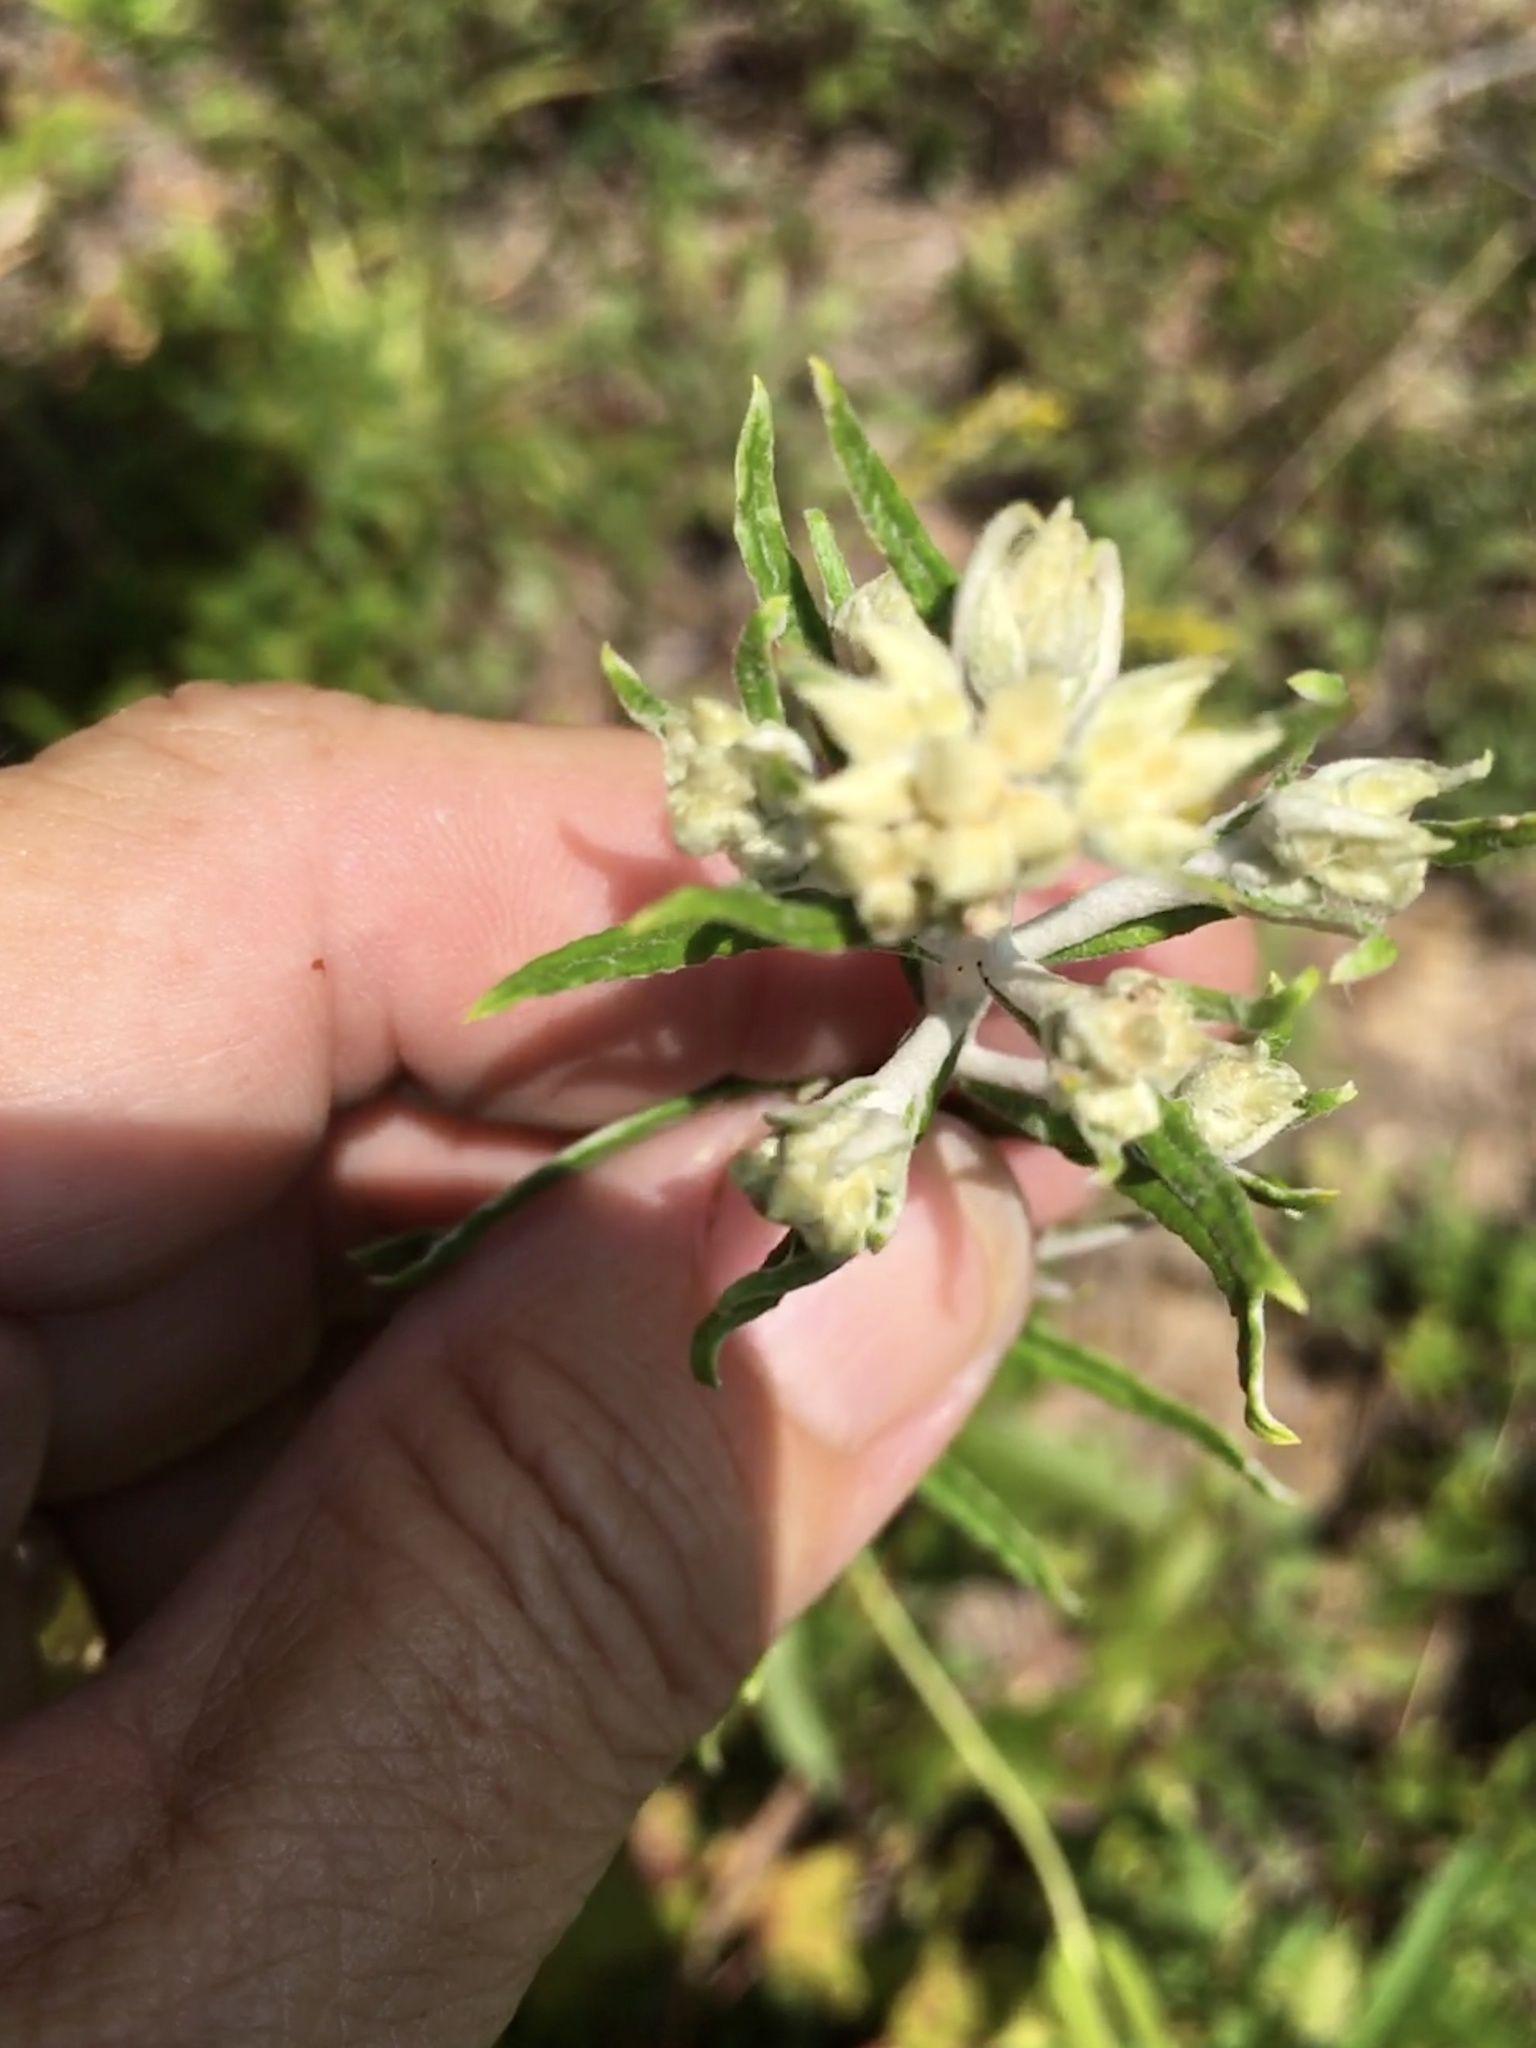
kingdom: Plantae
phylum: Tracheophyta
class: Magnoliopsida
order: Asterales
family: Asteraceae
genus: Pseudognaphalium
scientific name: Pseudognaphalium obtusifolium
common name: Eastern rabbit-tobacco
